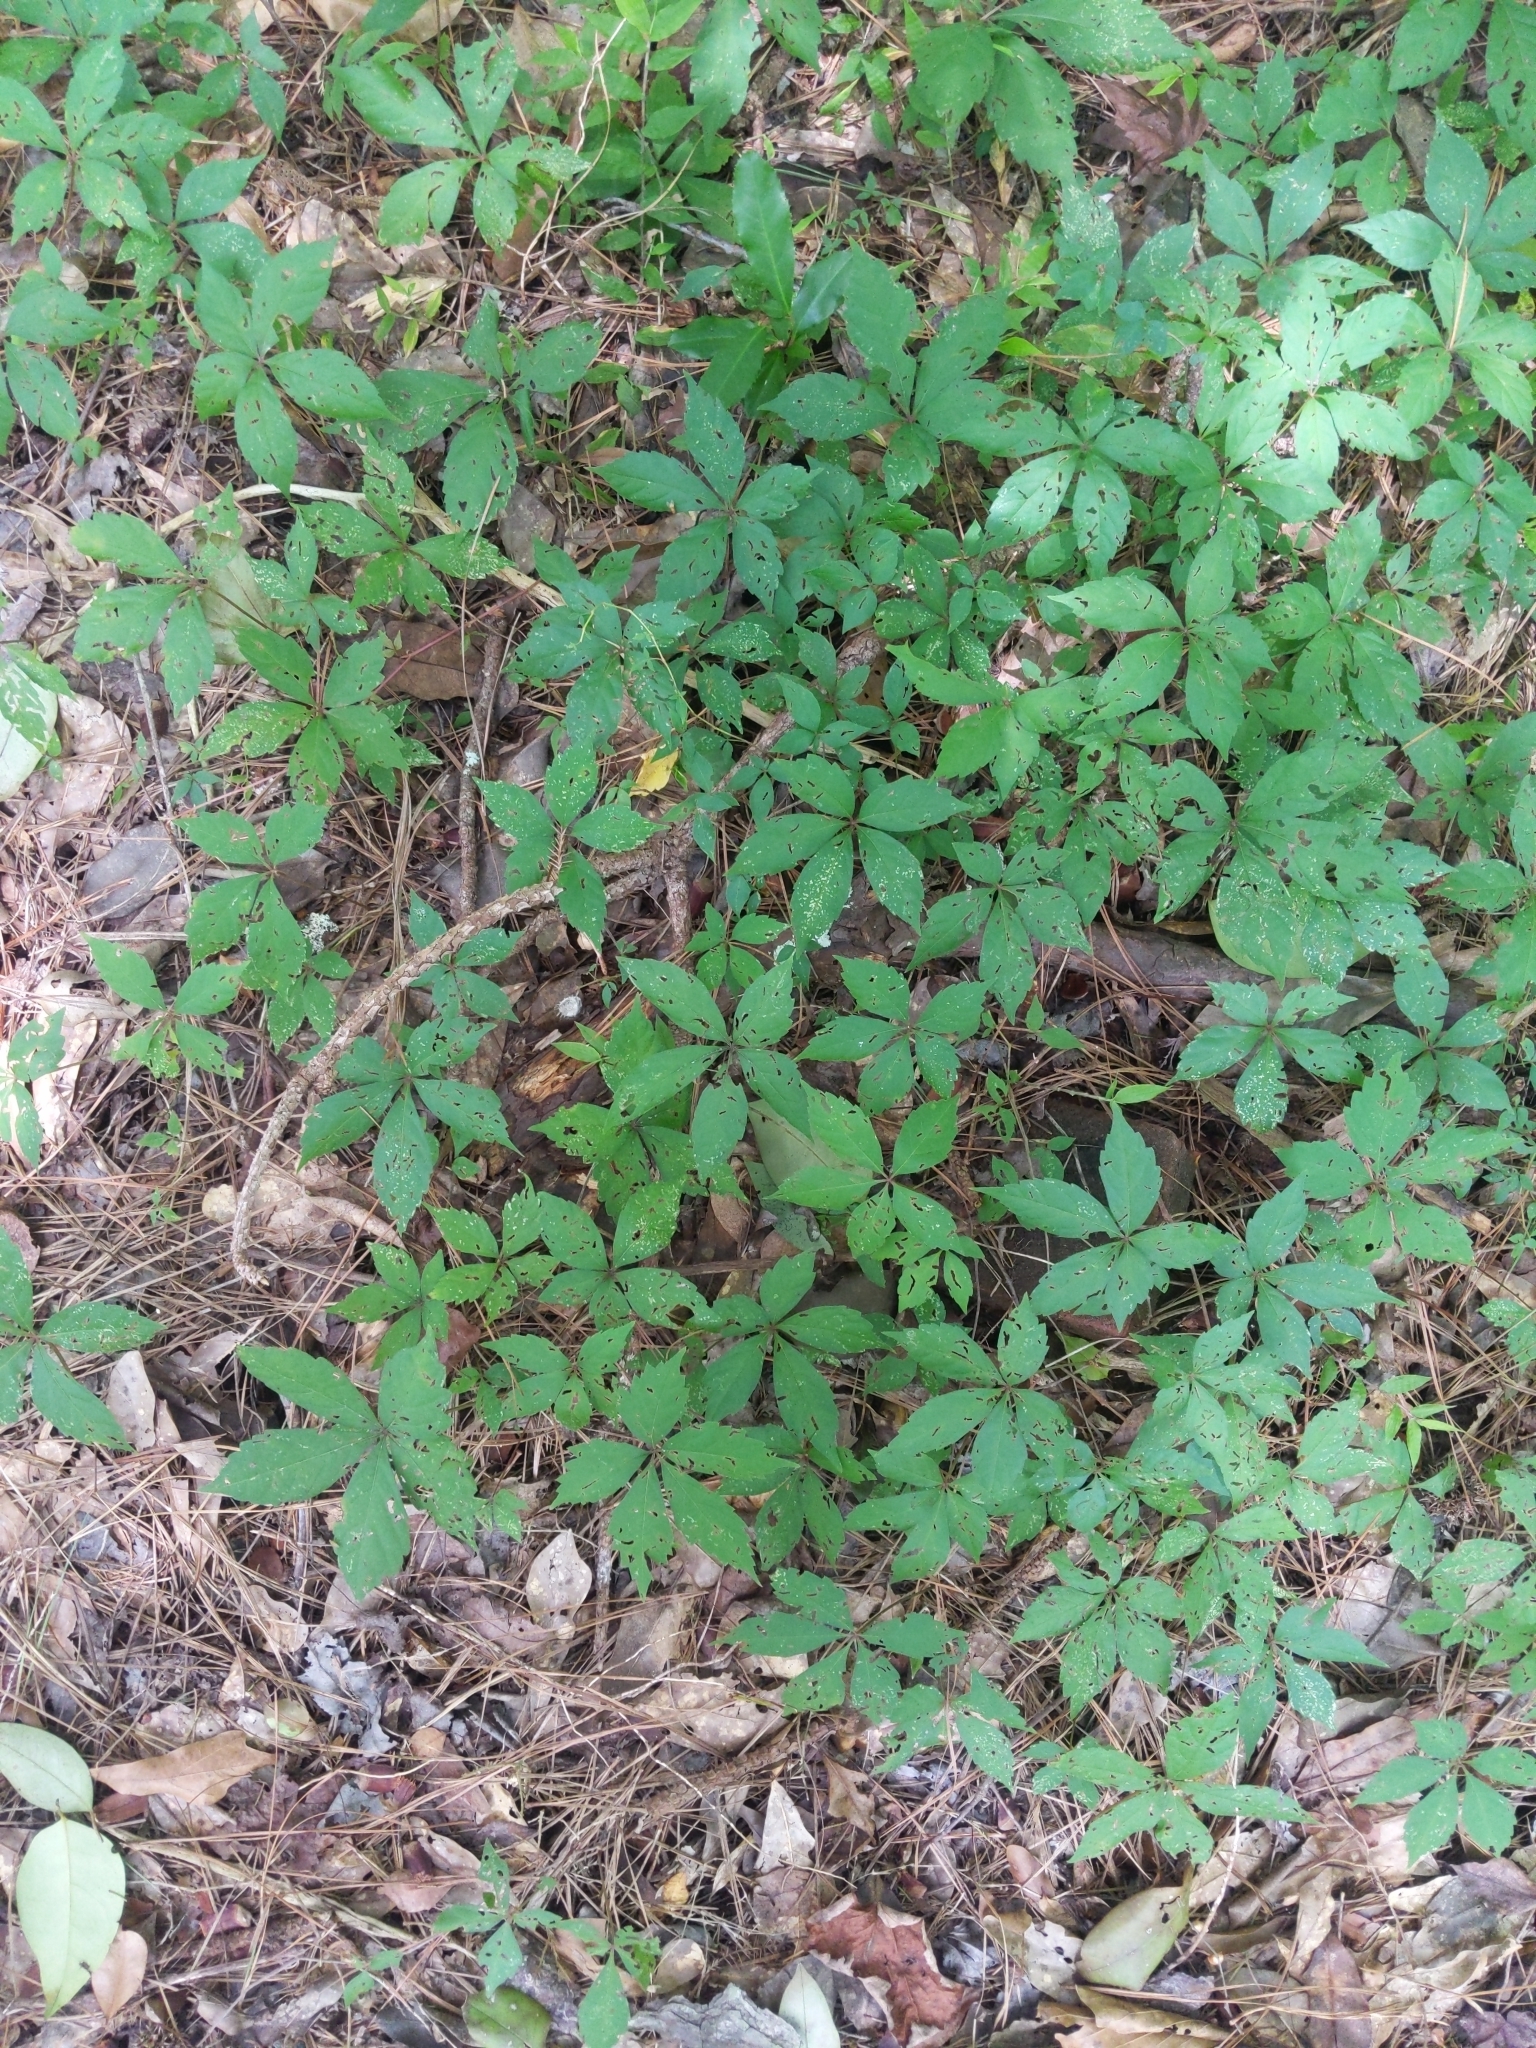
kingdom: Plantae
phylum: Tracheophyta
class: Magnoliopsida
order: Vitales
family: Vitaceae
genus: Parthenocissus
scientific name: Parthenocissus quinquefolia
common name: Virginia-creeper
